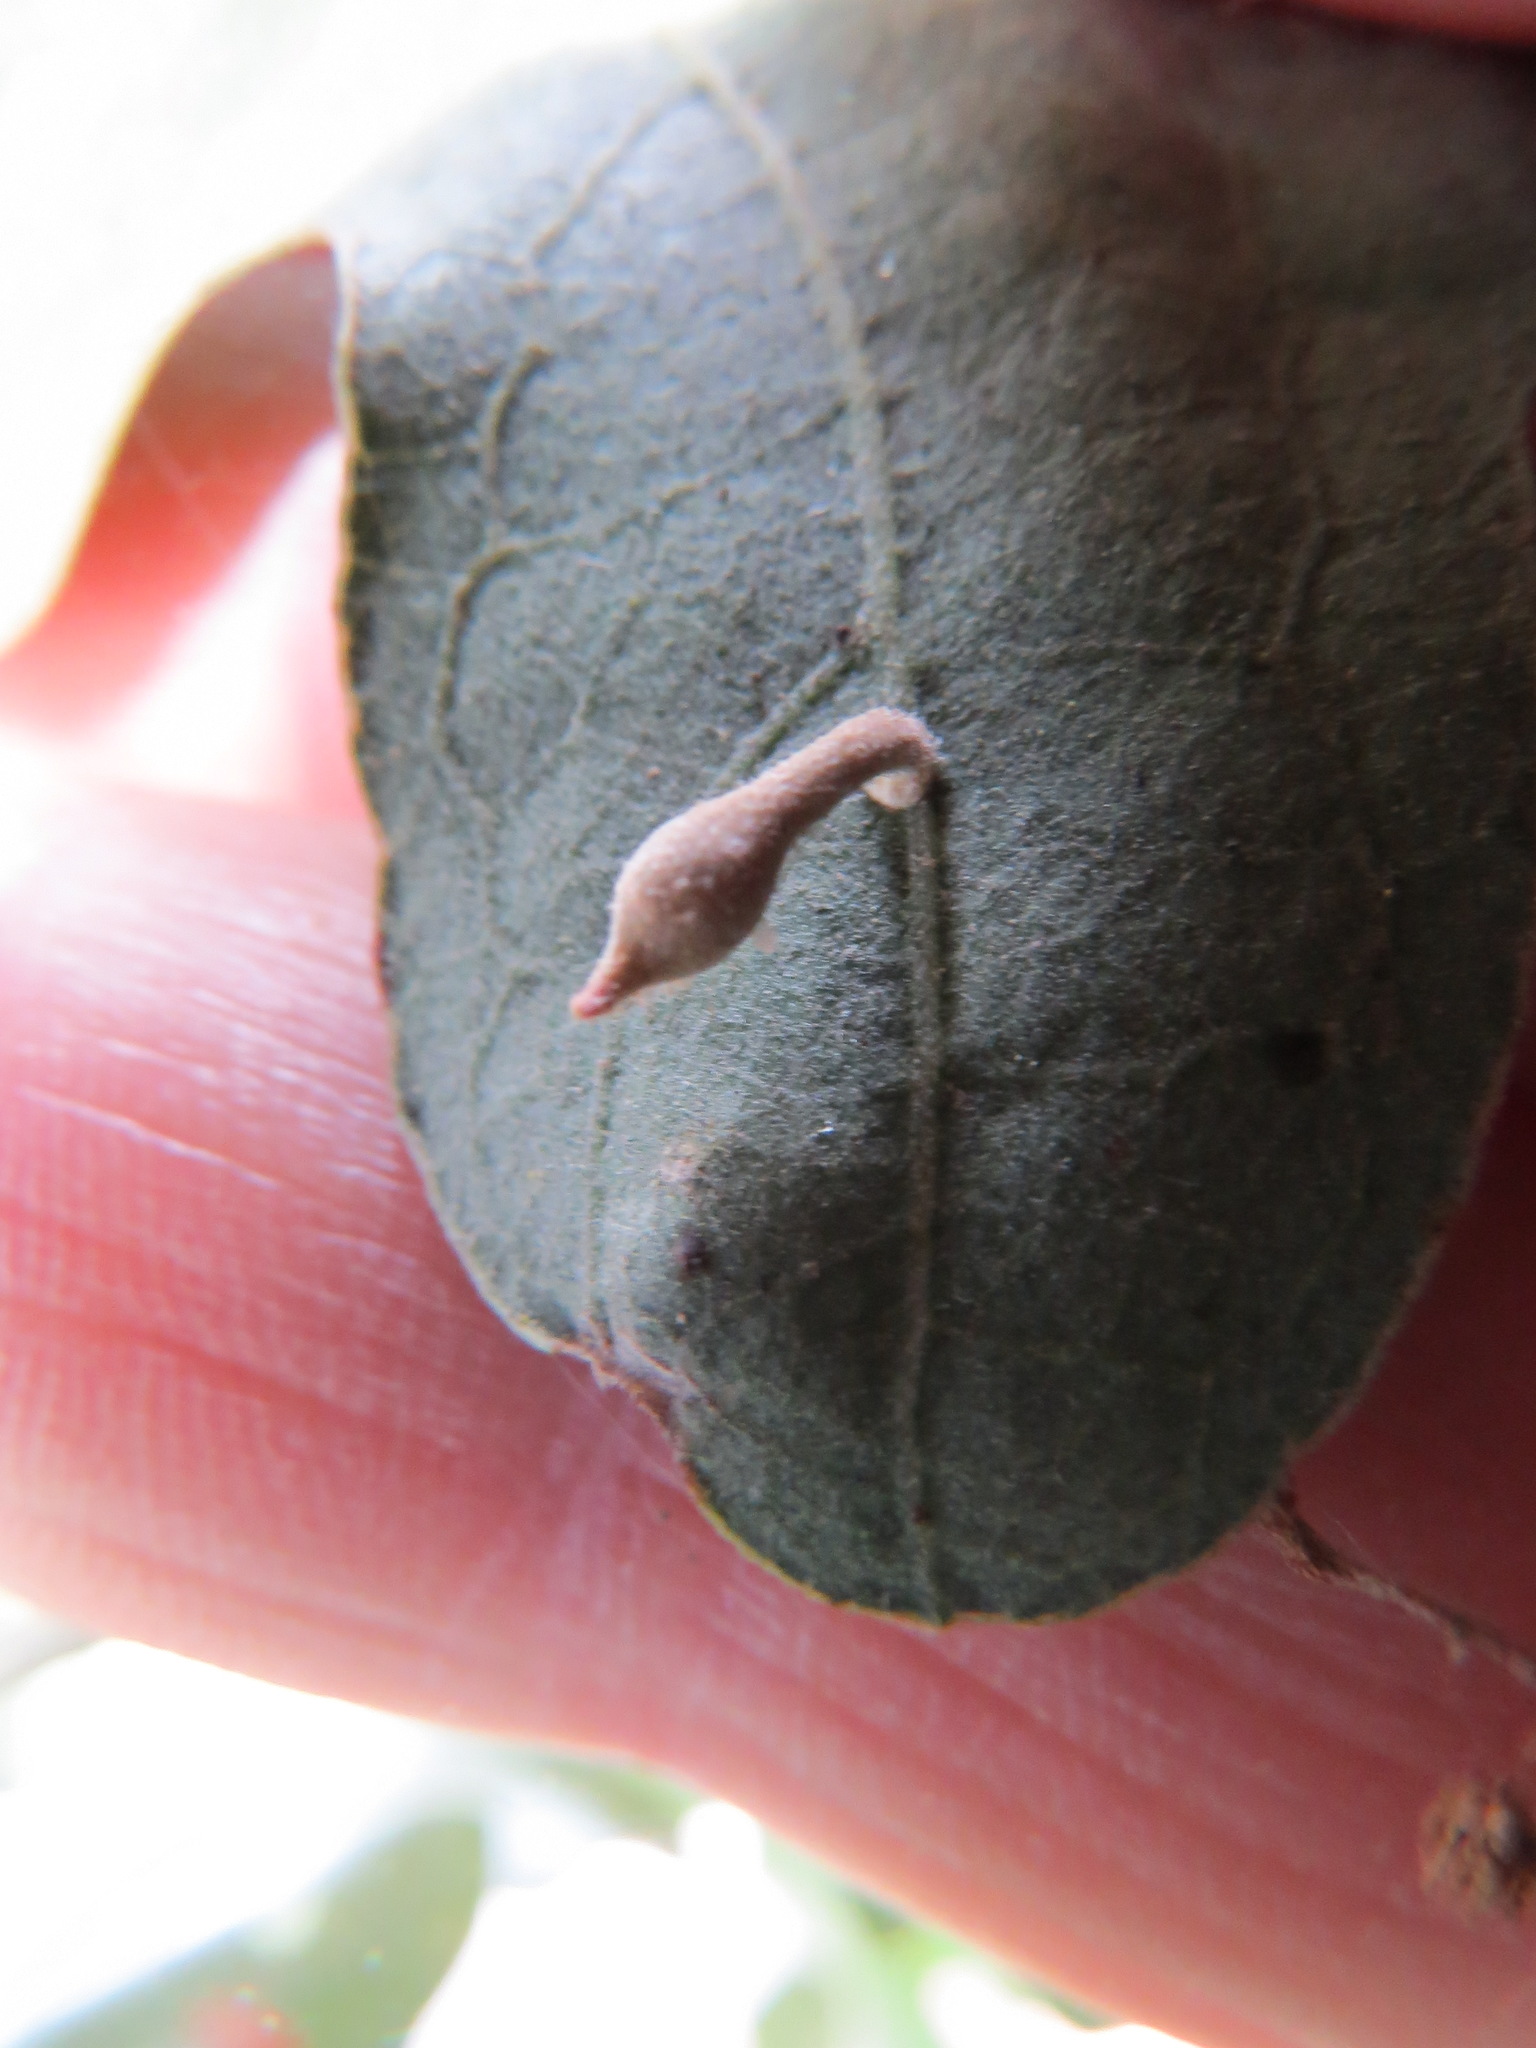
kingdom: Animalia
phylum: Arthropoda
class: Insecta
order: Hymenoptera
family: Cynipidae
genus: Atrusca
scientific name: Atrusca
